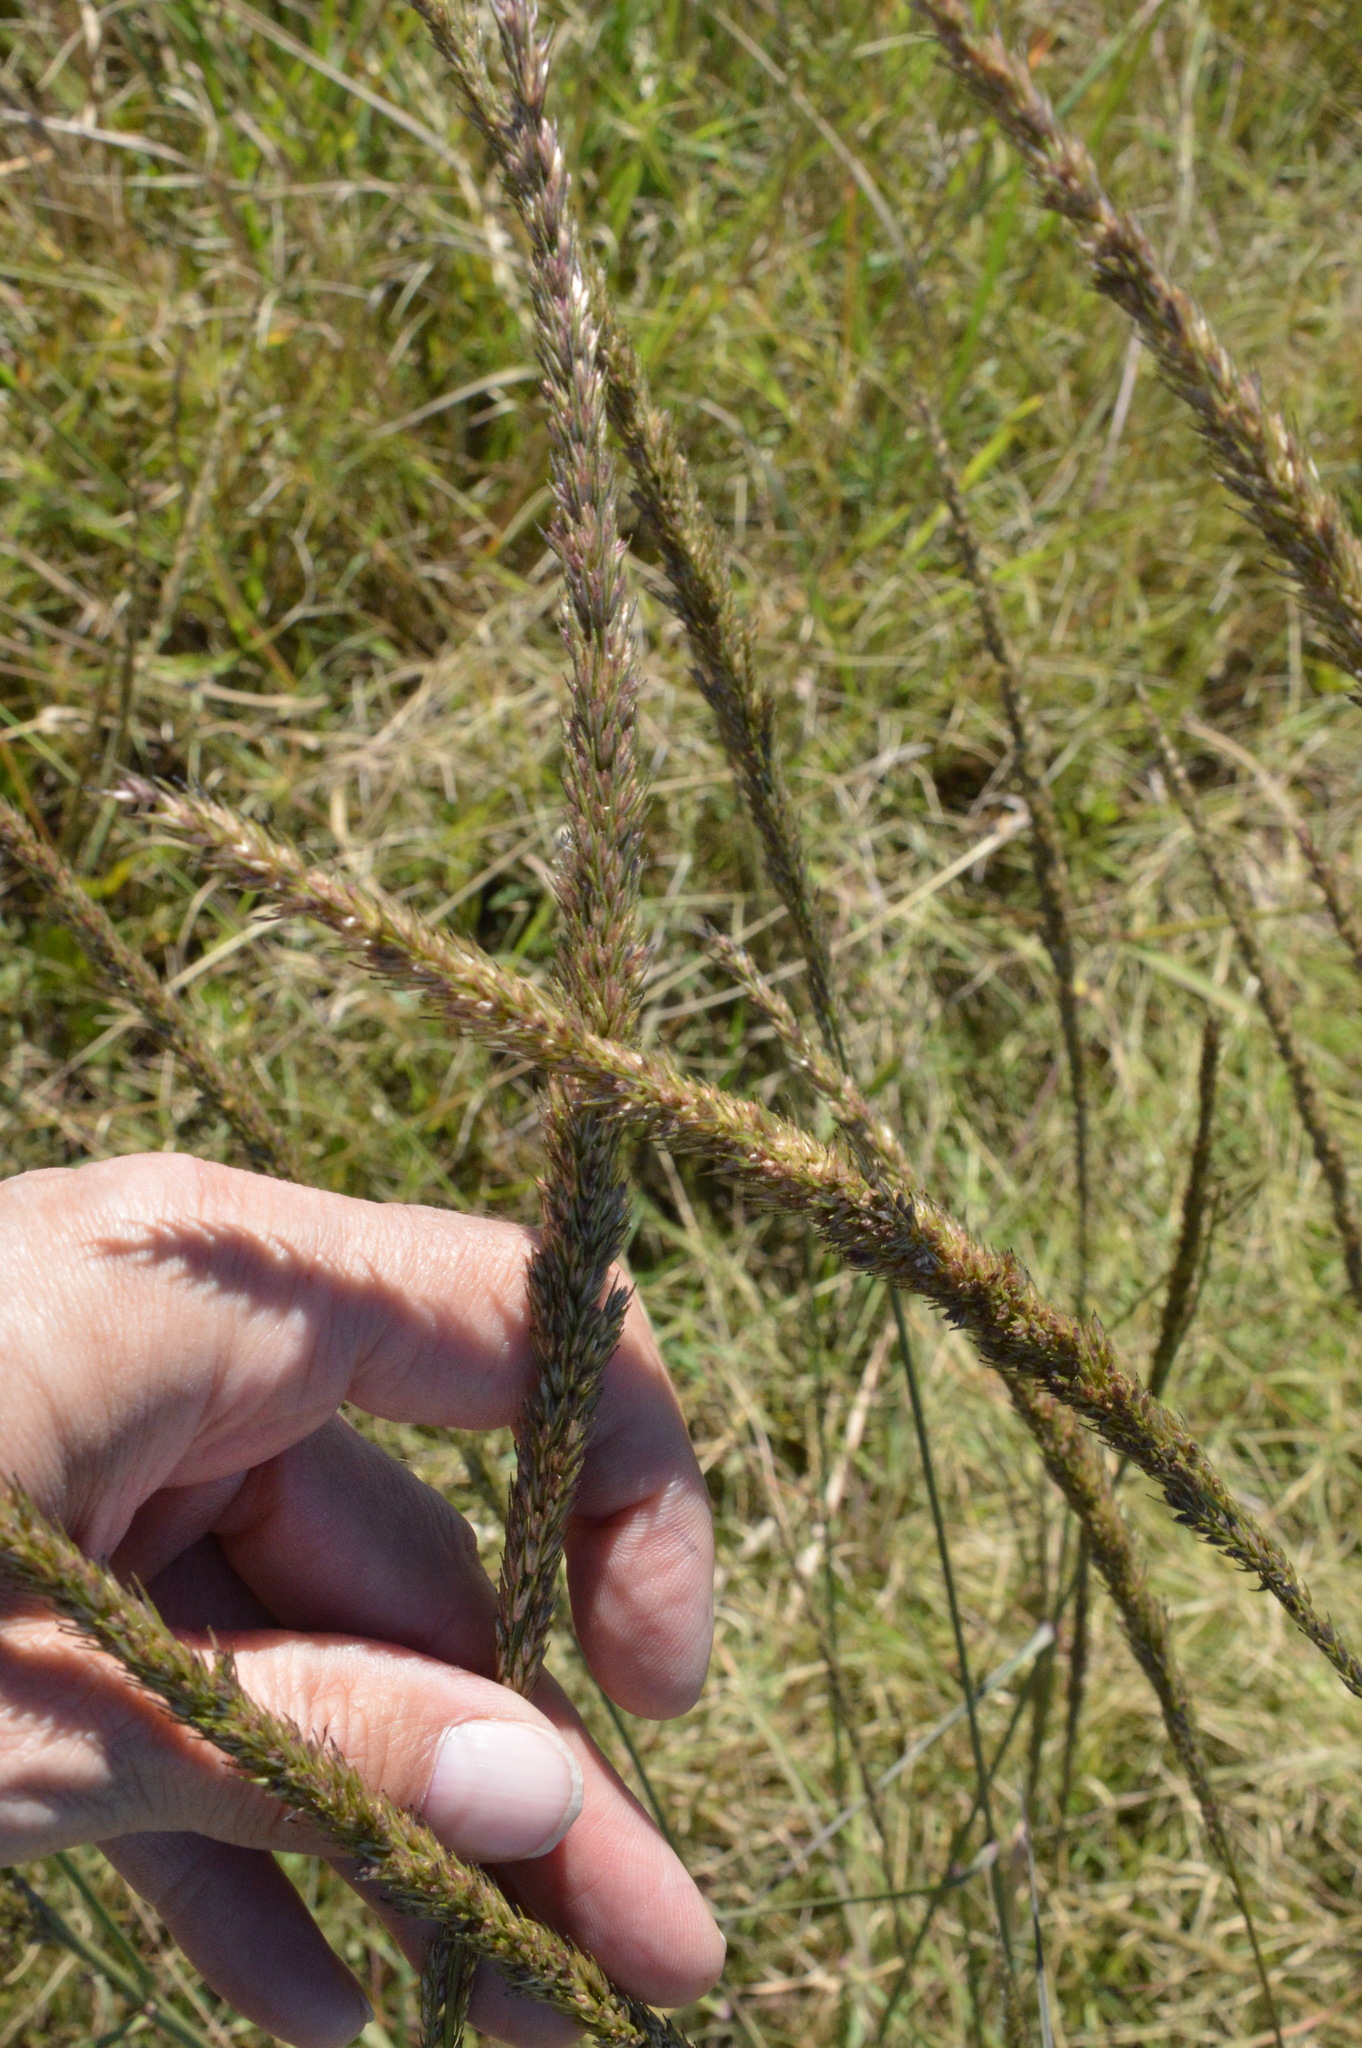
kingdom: Plantae
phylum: Tracheophyta
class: Liliopsida
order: Poales
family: Poaceae
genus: Tridens
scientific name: Tridens strictus
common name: Long-spike tridens
